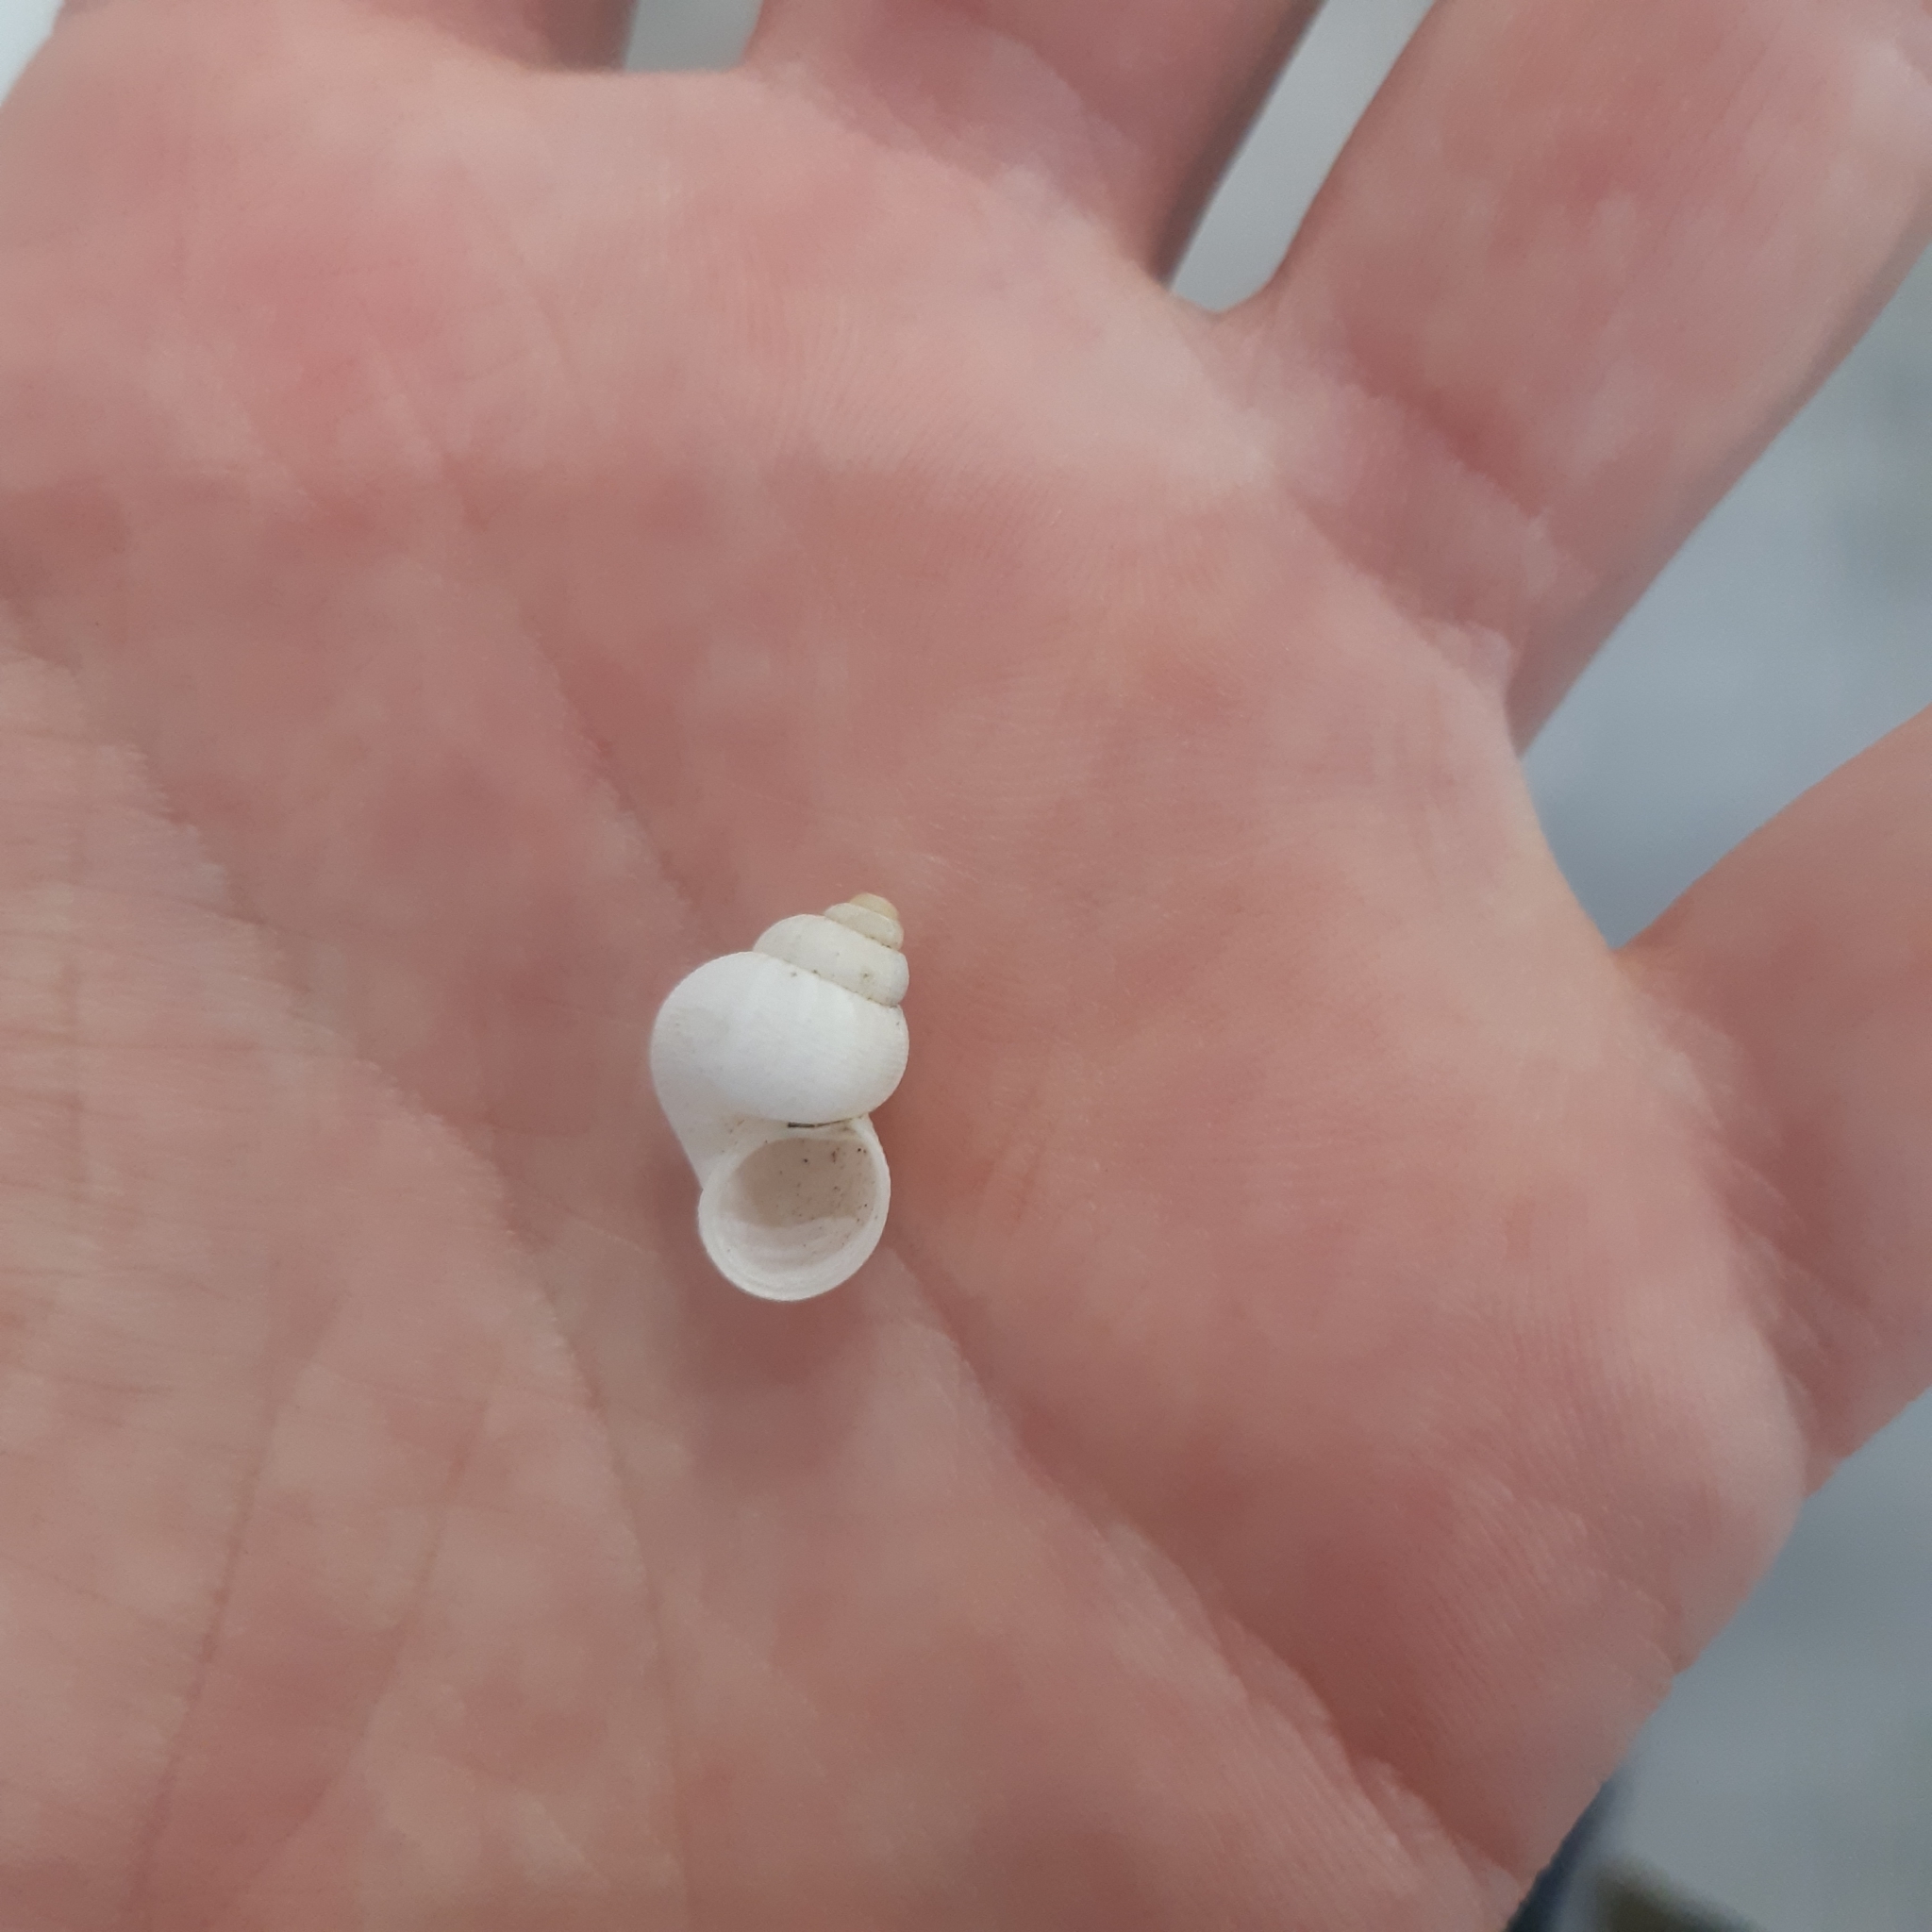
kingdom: Animalia
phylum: Mollusca
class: Gastropoda
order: Littorinimorpha
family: Pomatiidae
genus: Pomatias
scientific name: Pomatias elegans
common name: Red-mouthed snail
